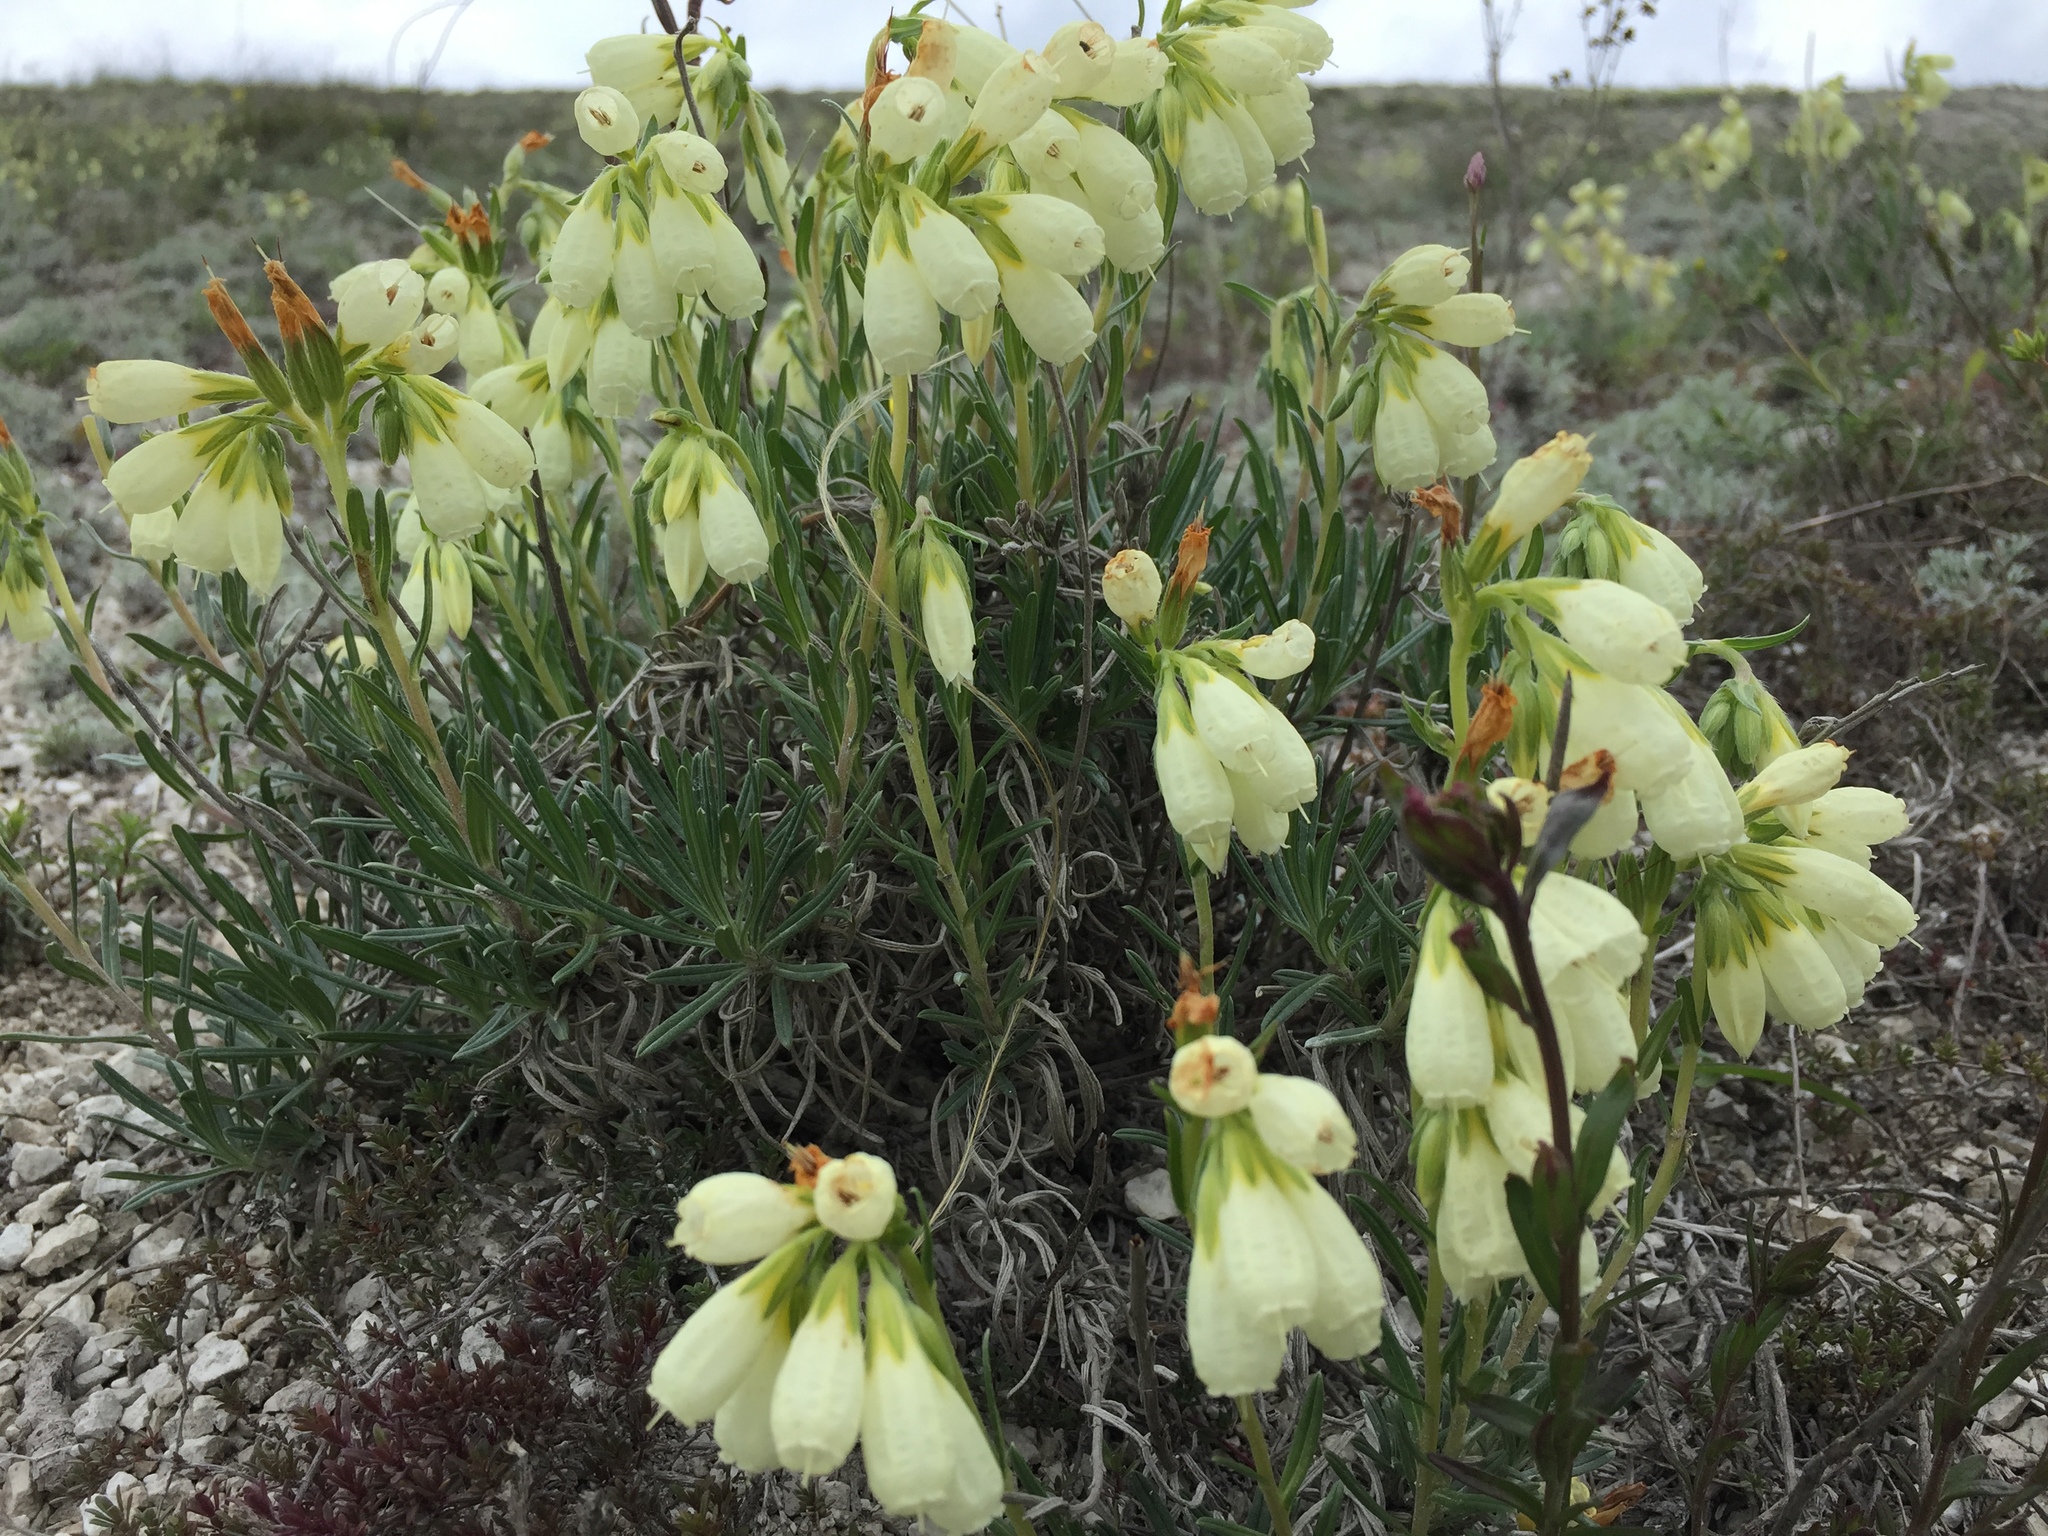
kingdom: Plantae
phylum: Tracheophyta
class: Magnoliopsida
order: Boraginales
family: Boraginaceae
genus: Onosma
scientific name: Onosma simplicissima
